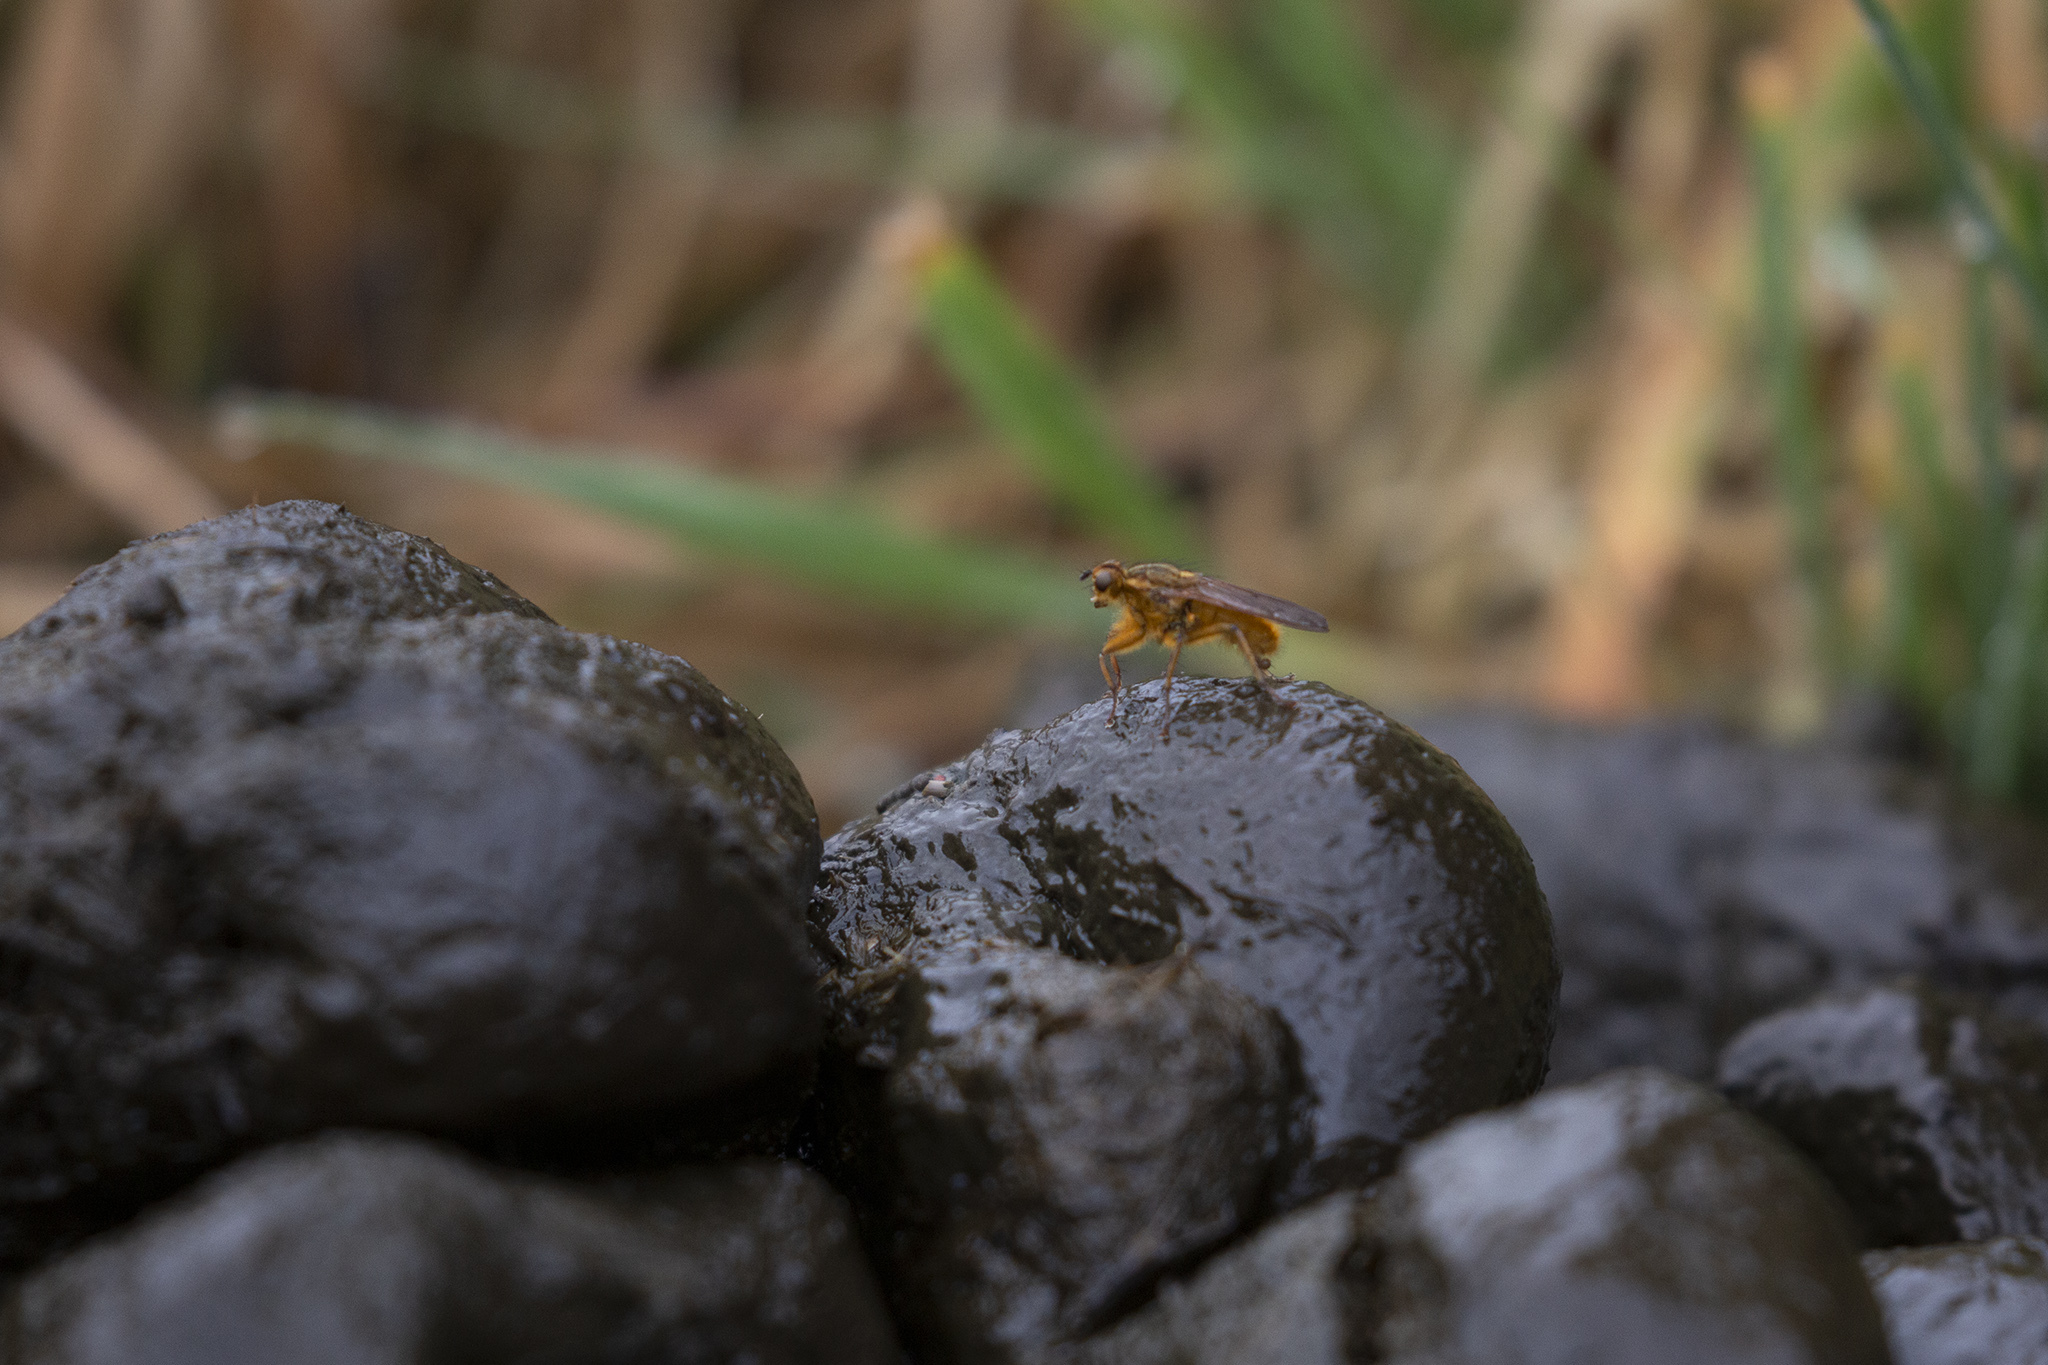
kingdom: Animalia
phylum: Arthropoda
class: Insecta
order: Diptera
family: Scathophagidae
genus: Scathophaga
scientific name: Scathophaga stercoraria
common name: Yellow dung fly
